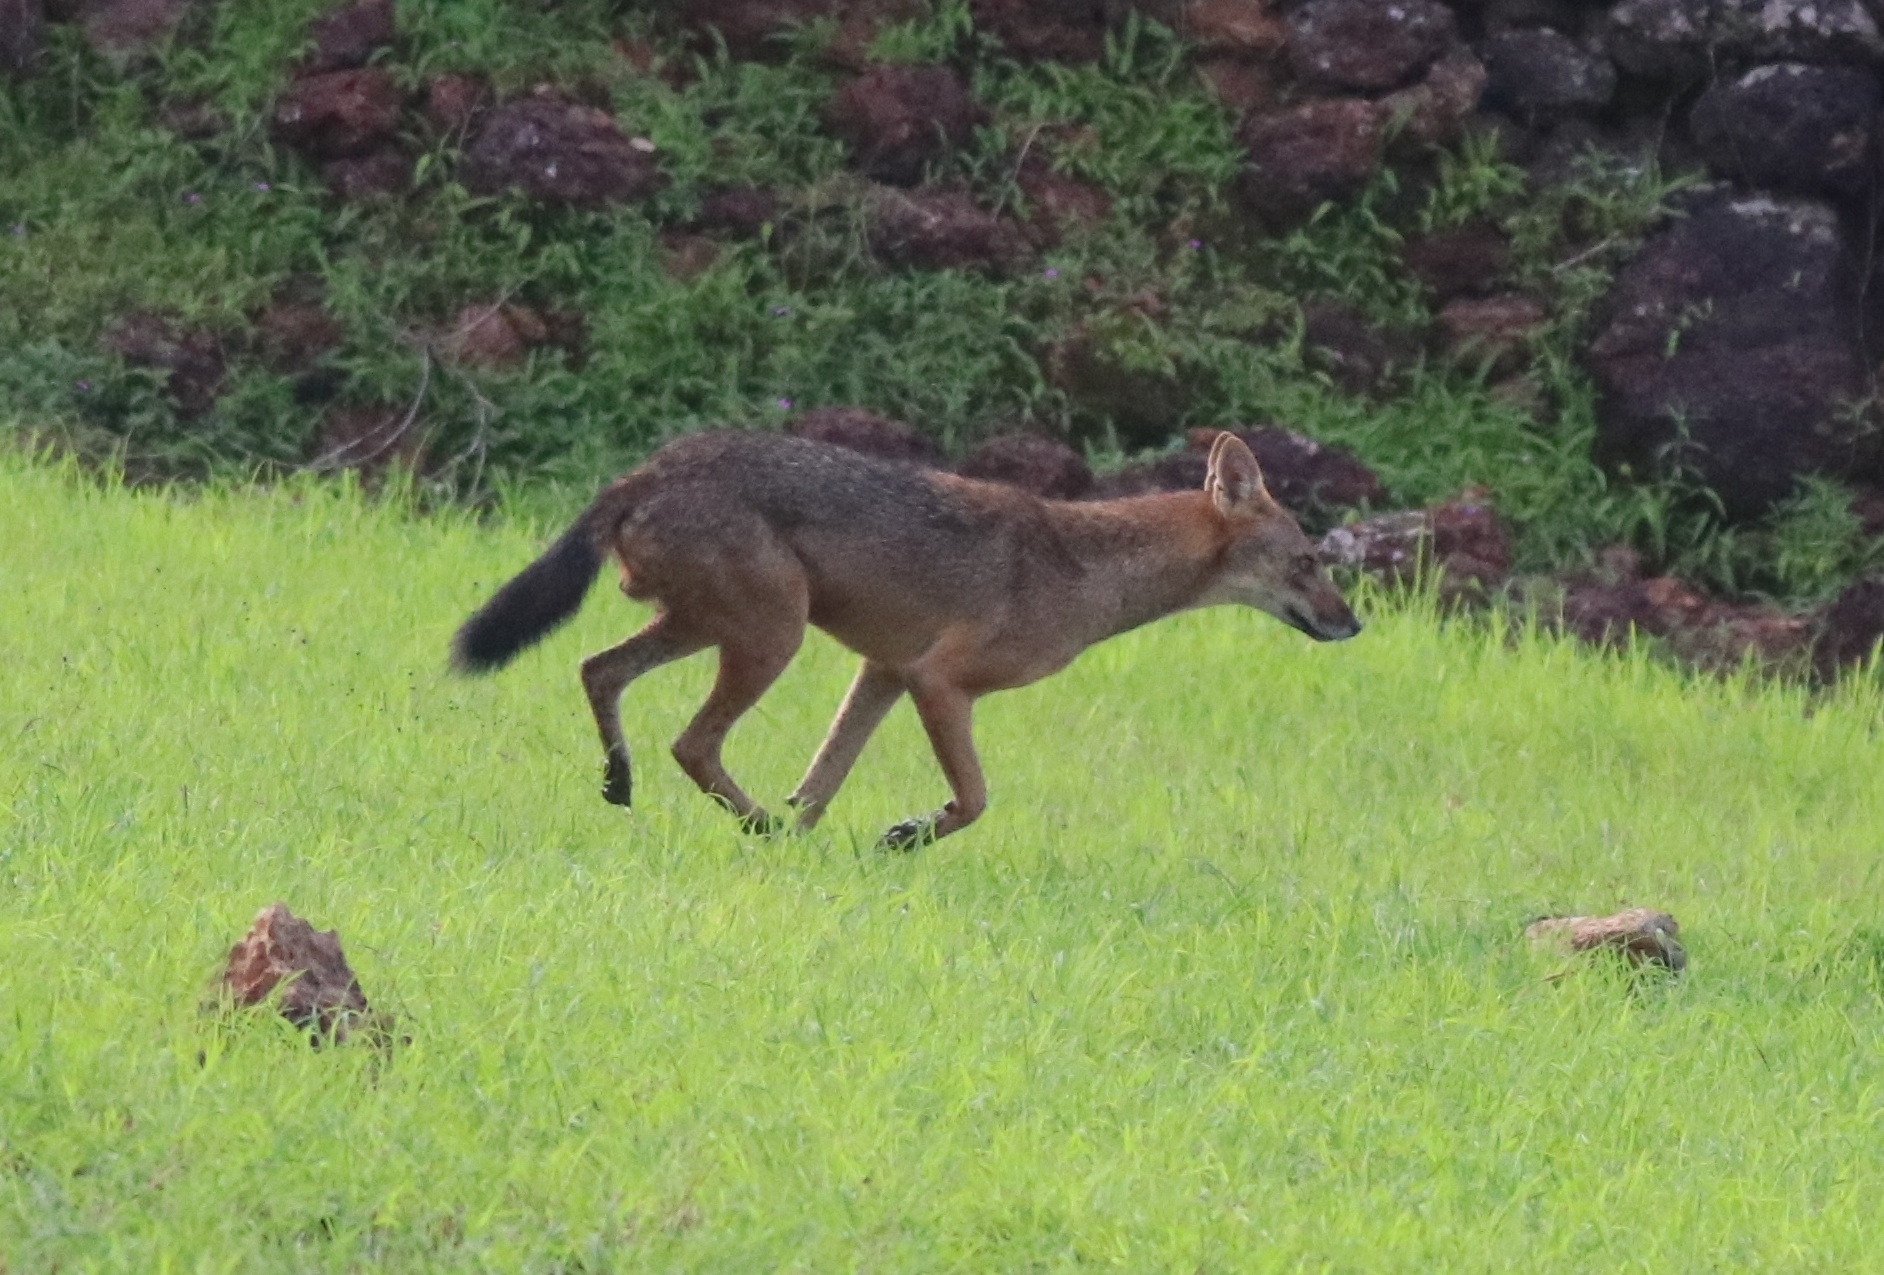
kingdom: Animalia
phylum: Chordata
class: Mammalia
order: Carnivora
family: Canidae
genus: Canis
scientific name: Canis aureus
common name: Golden jackal
